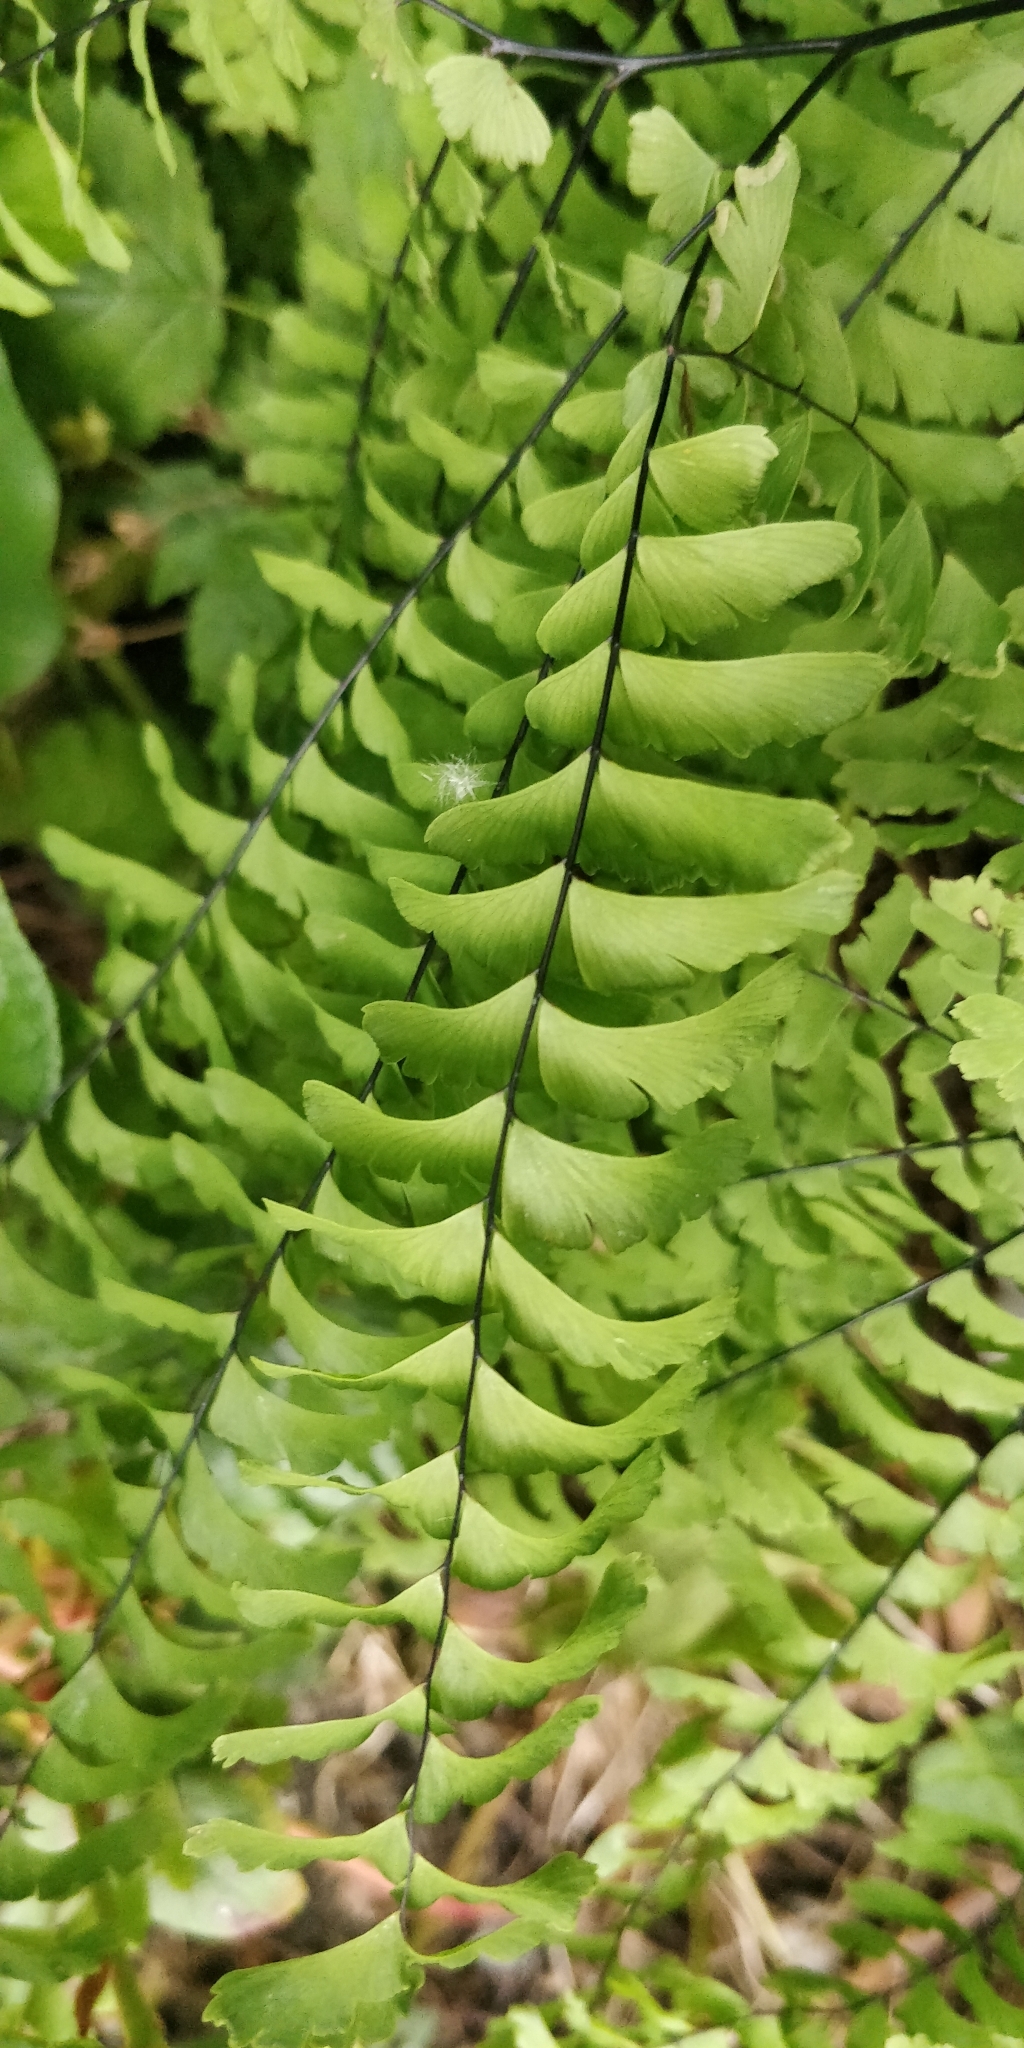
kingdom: Plantae
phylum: Tracheophyta
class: Polypodiopsida
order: Polypodiales
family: Pteridaceae
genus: Adiantum
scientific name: Adiantum aleuticum
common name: Aleutian maidenhair fern
